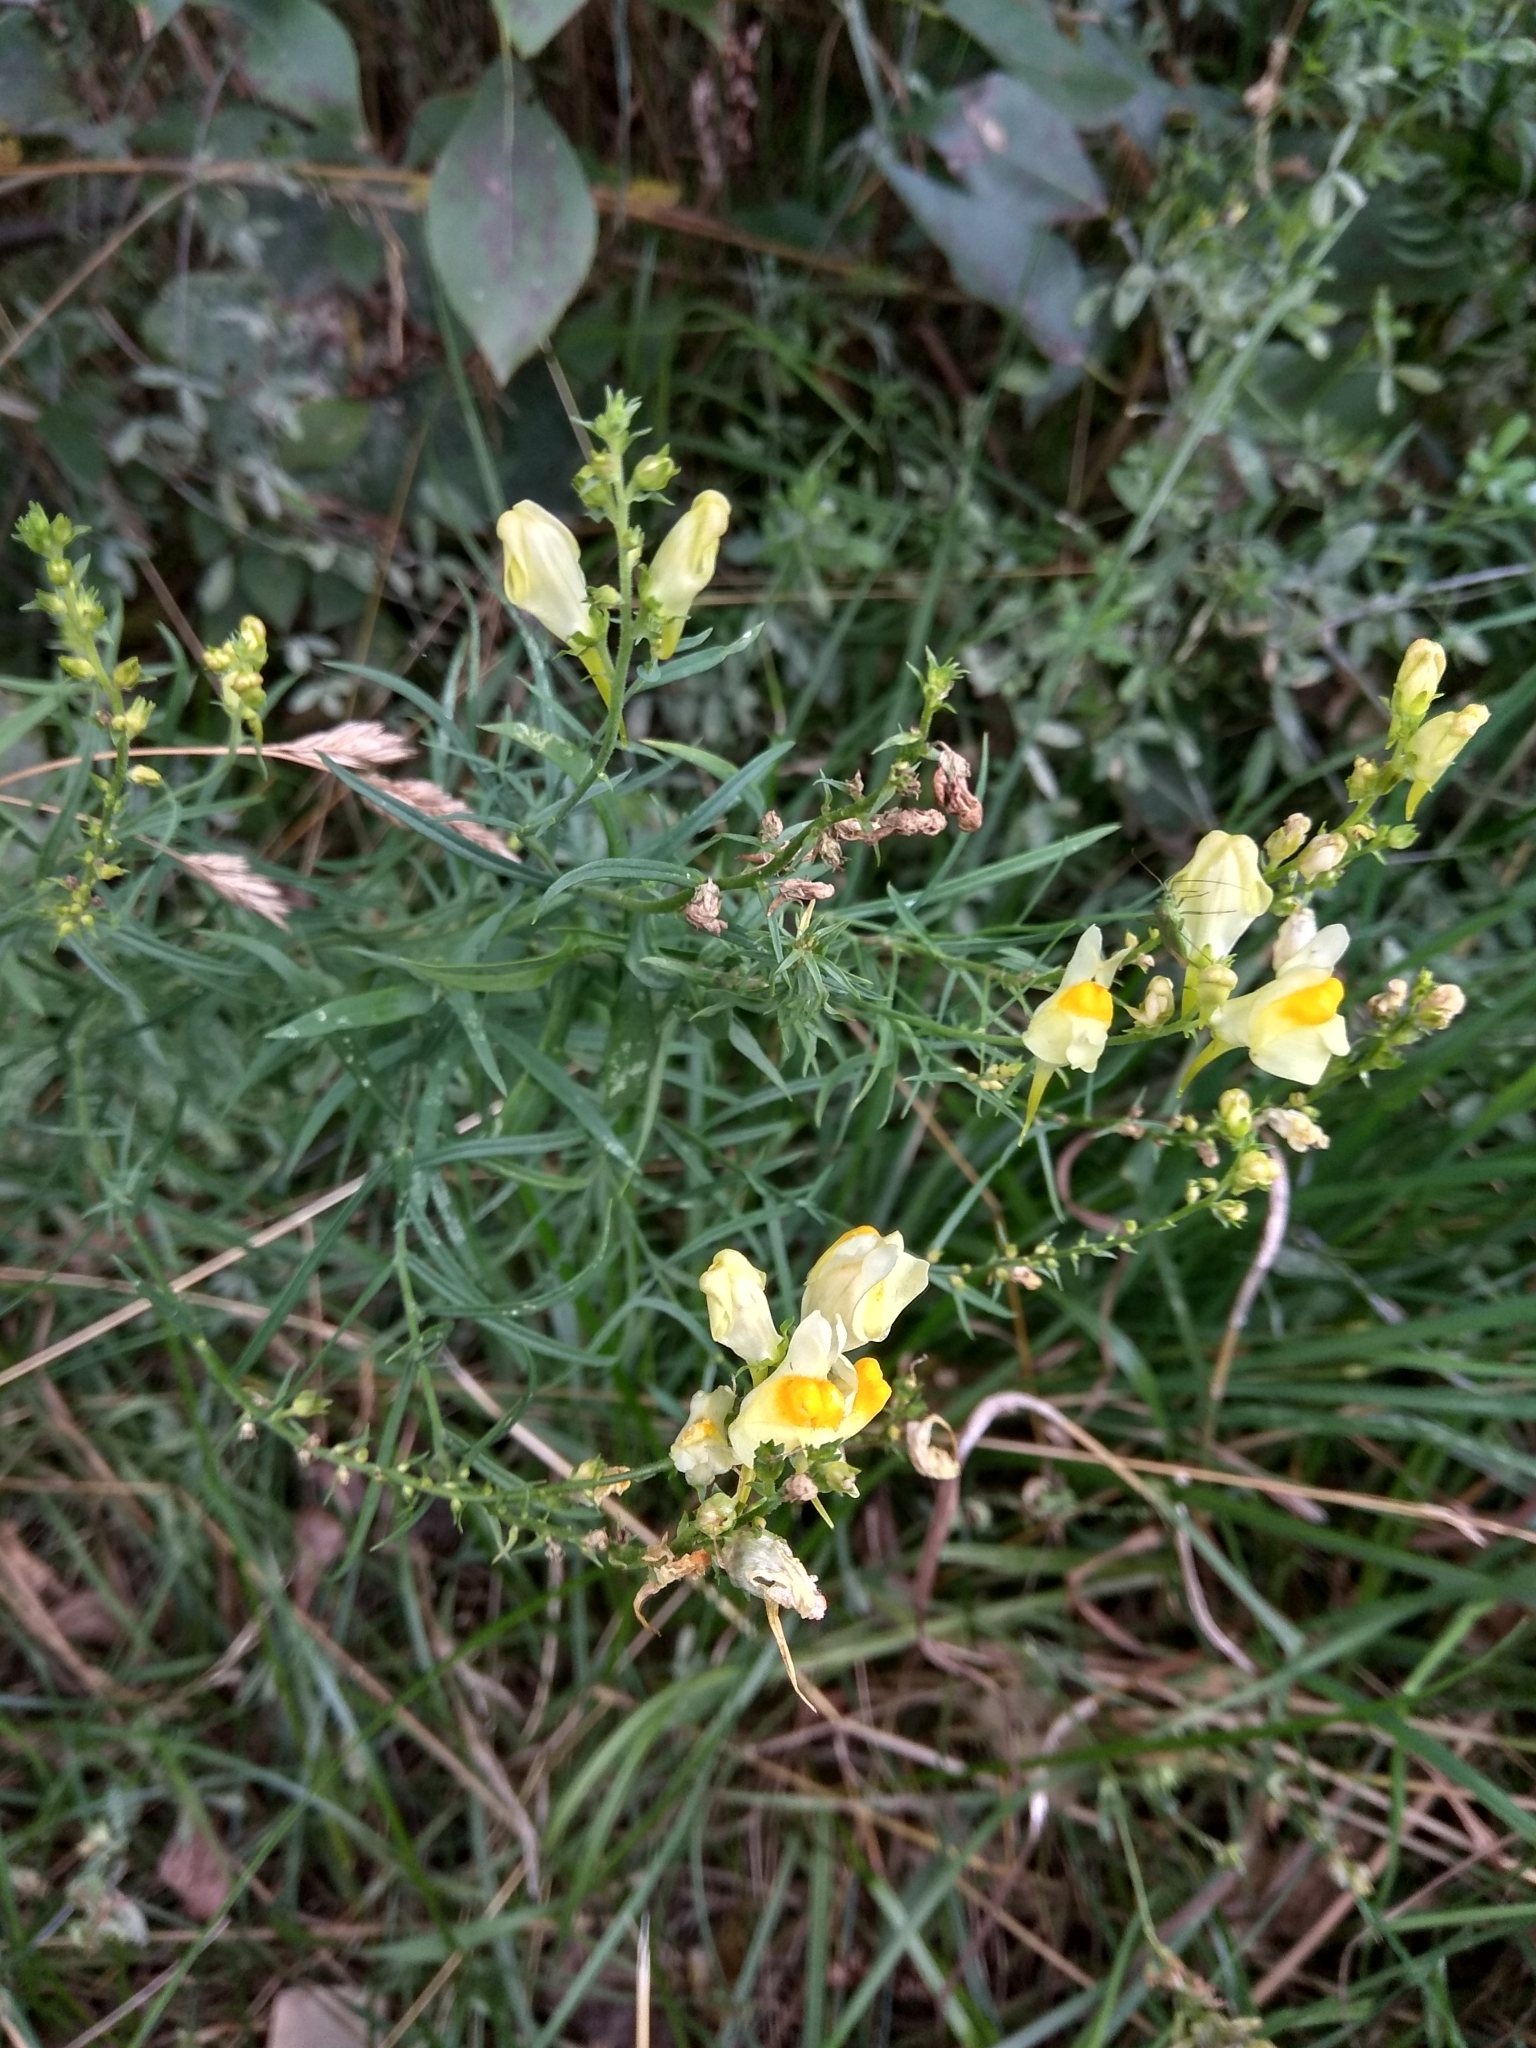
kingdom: Plantae
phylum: Tracheophyta
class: Magnoliopsida
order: Lamiales
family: Plantaginaceae
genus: Linaria
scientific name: Linaria vulgaris
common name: Butter and eggs
